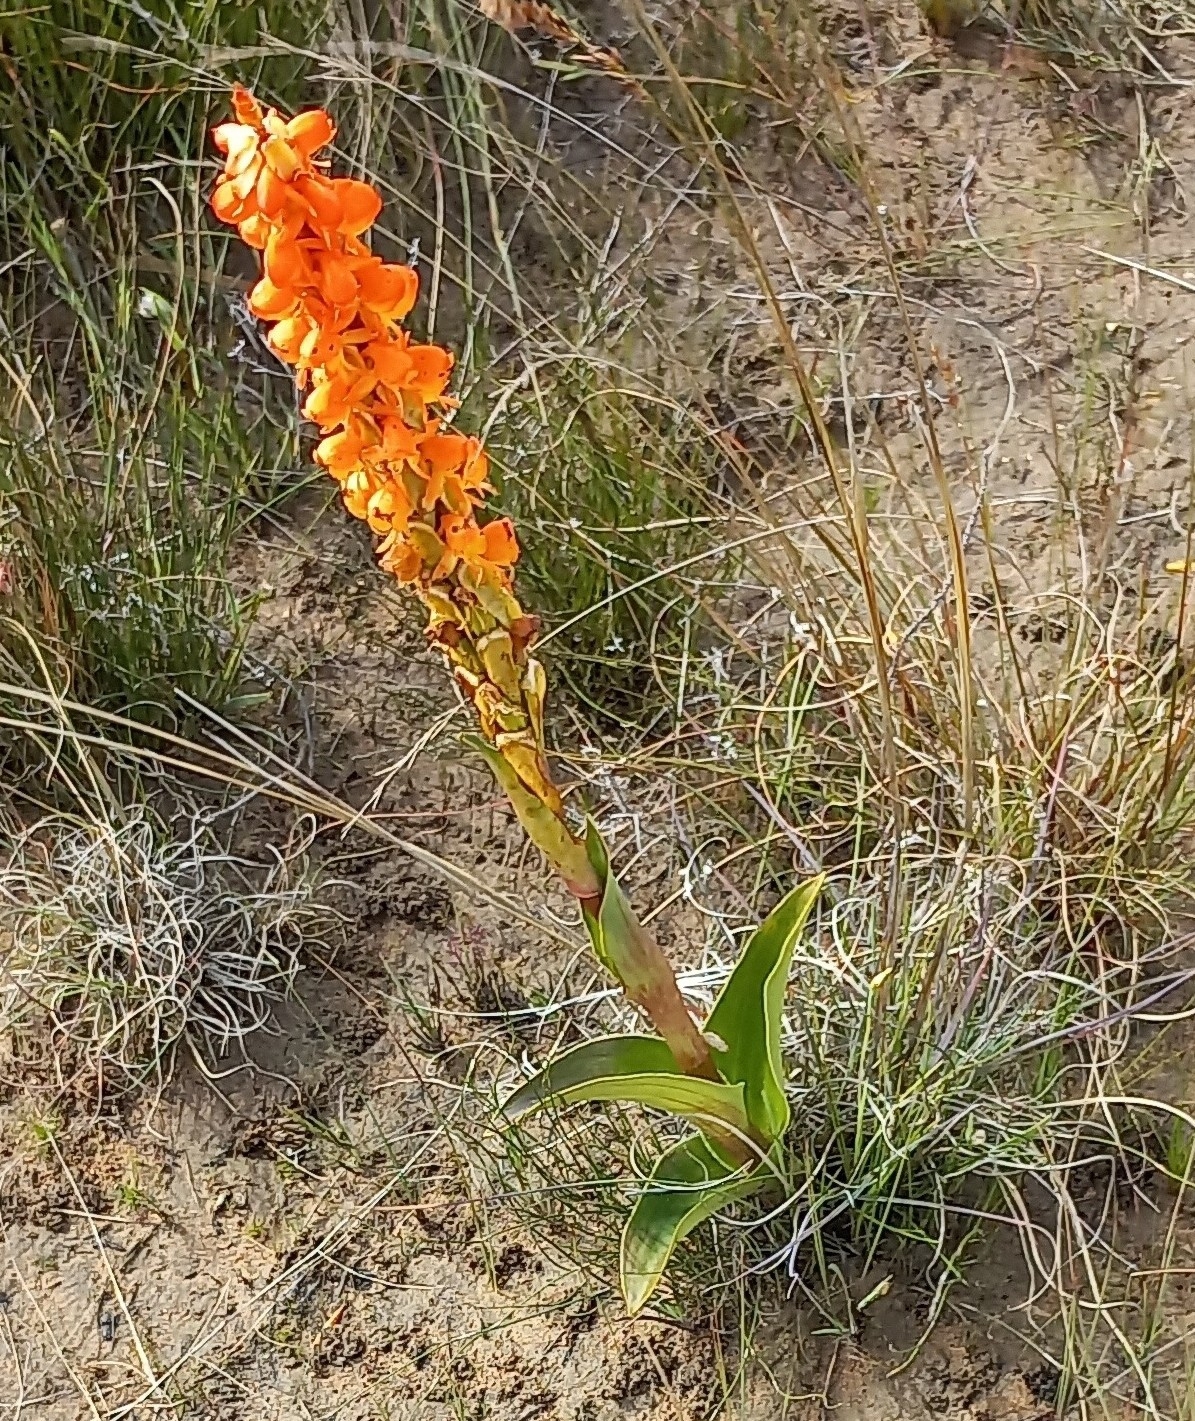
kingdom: Plantae
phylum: Tracheophyta
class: Liliopsida
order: Asparagales
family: Orchidaceae
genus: Satyrium
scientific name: Satyrium coriifolium
